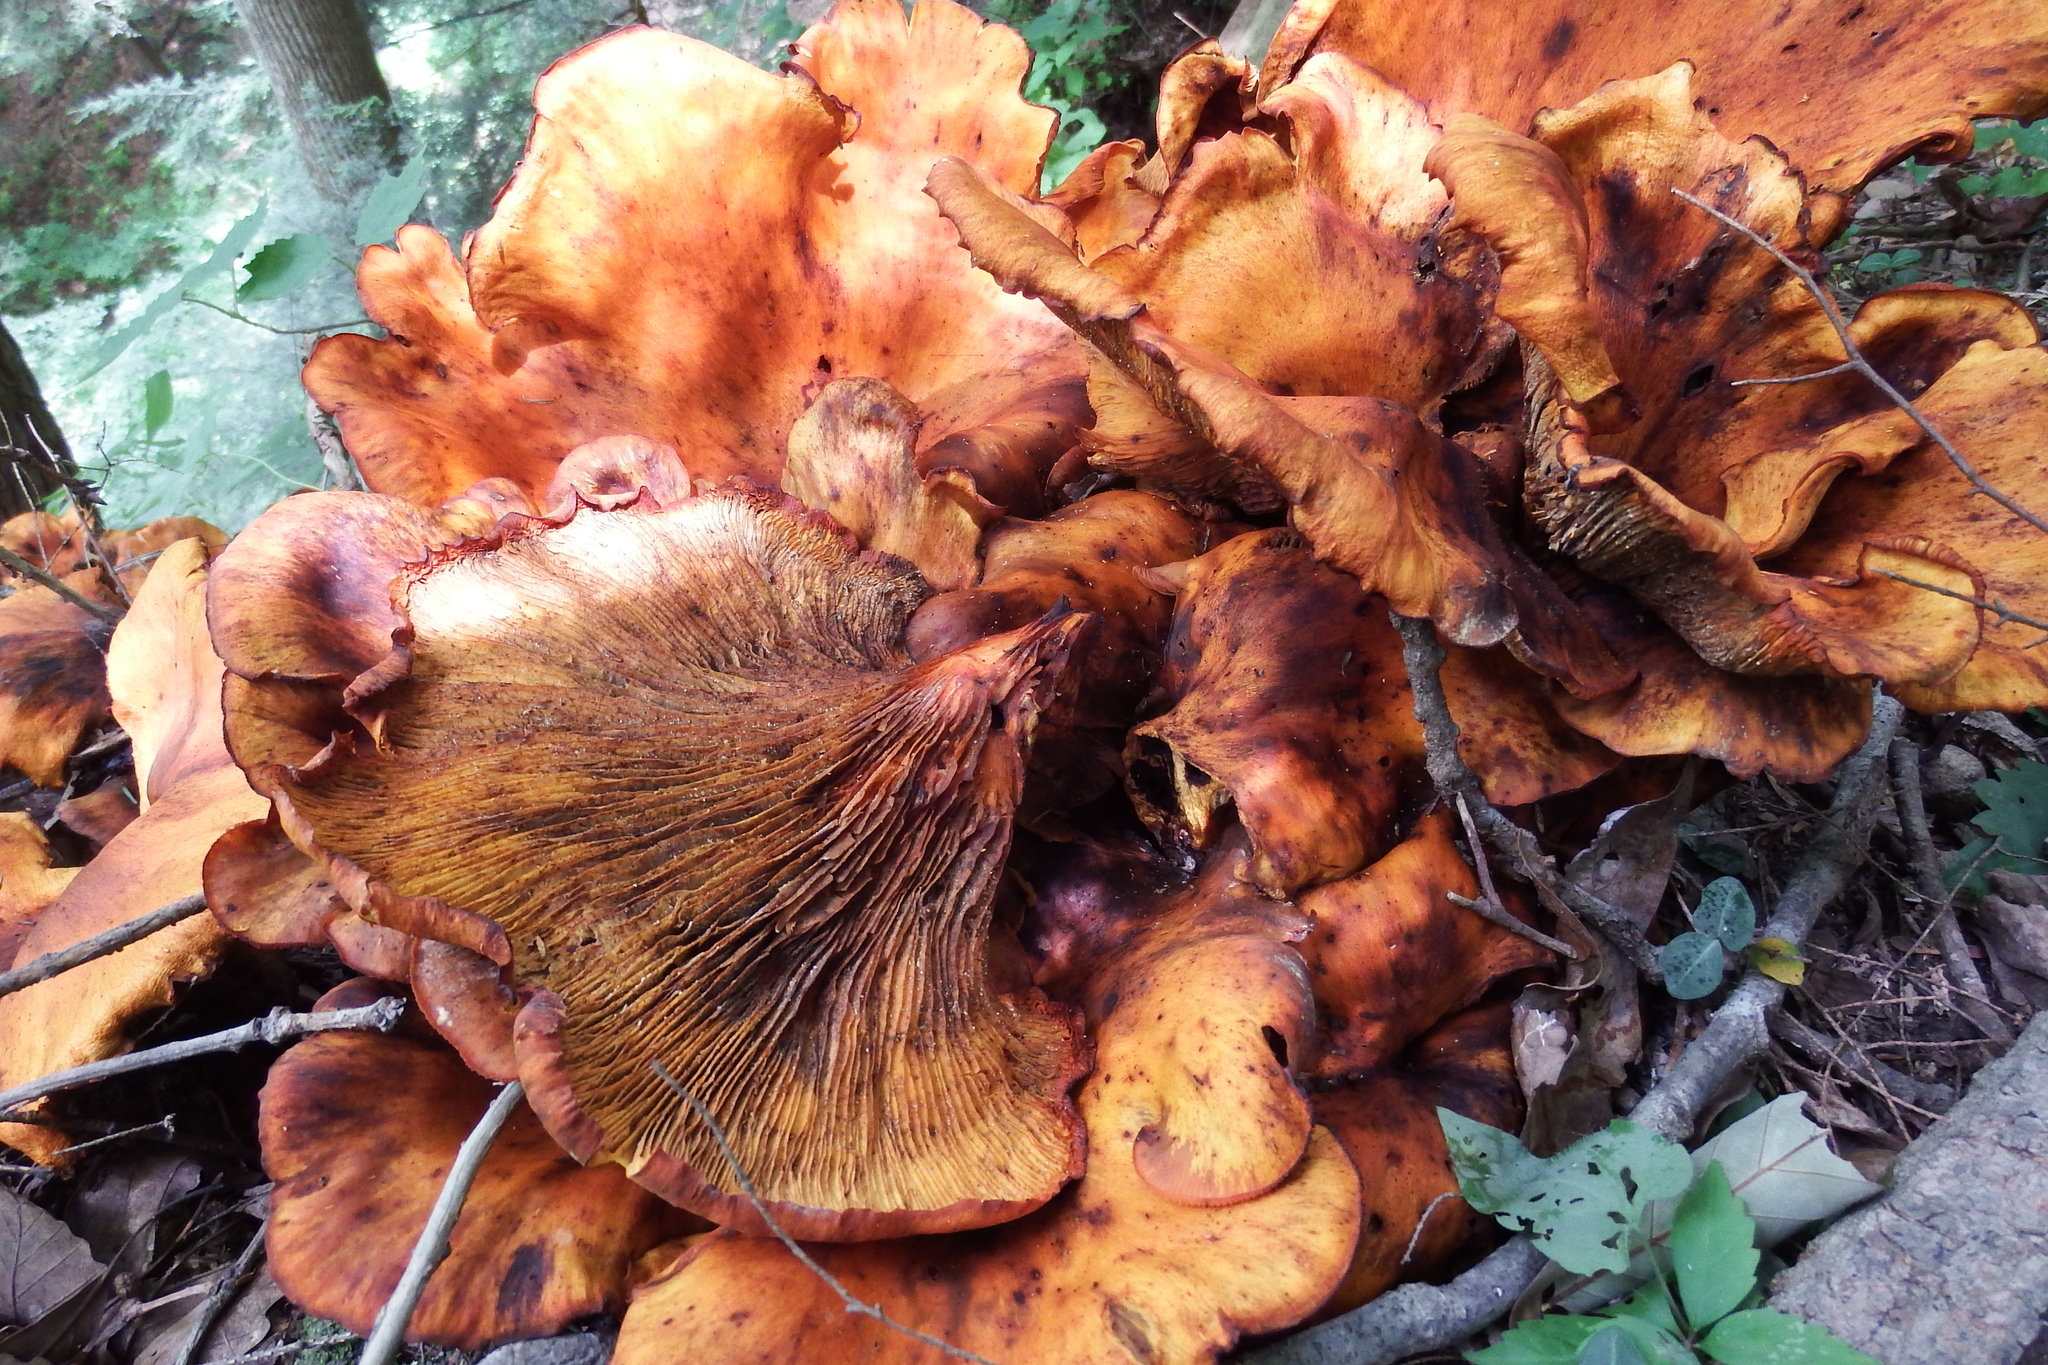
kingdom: Fungi
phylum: Basidiomycota
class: Agaricomycetes
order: Agaricales
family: Omphalotaceae
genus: Omphalotus
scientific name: Omphalotus illudens
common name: Jack o lantern
